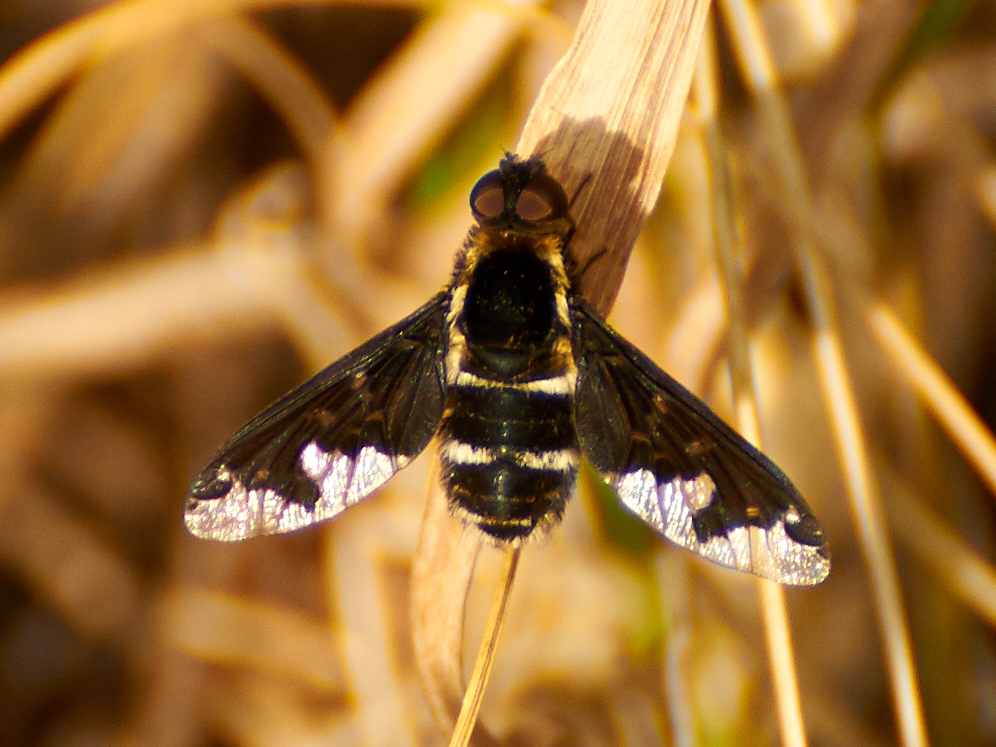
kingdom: Animalia
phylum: Arthropoda
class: Insecta
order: Diptera
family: Bombyliidae
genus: Hemipenthes
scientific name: Hemipenthes maura
